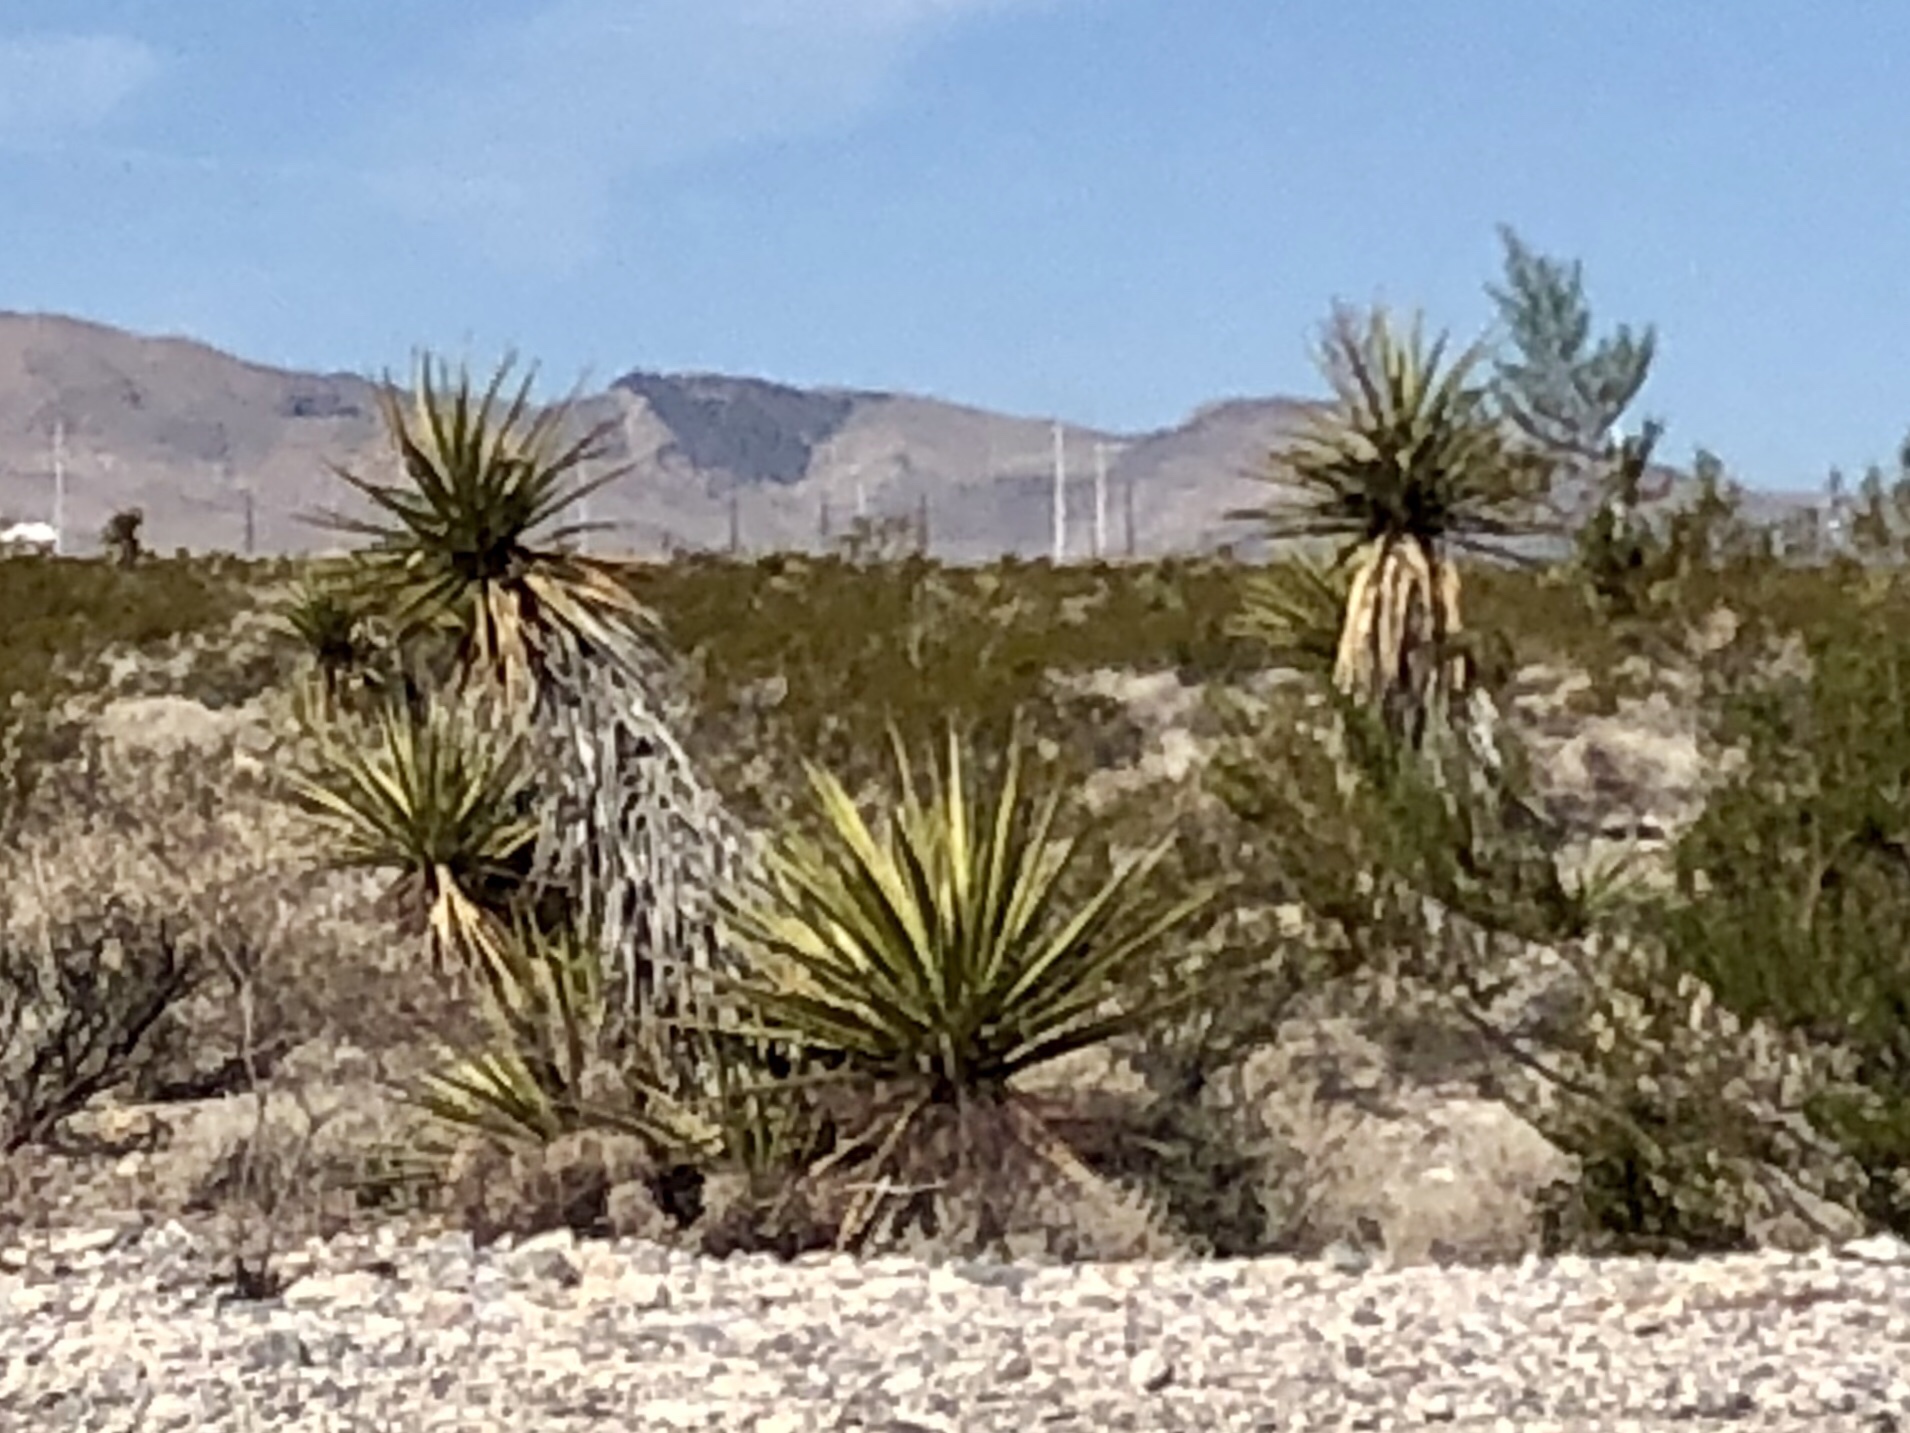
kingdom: Plantae
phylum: Tracheophyta
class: Liliopsida
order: Asparagales
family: Asparagaceae
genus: Yucca
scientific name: Yucca schidigera
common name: Mojave yucca
